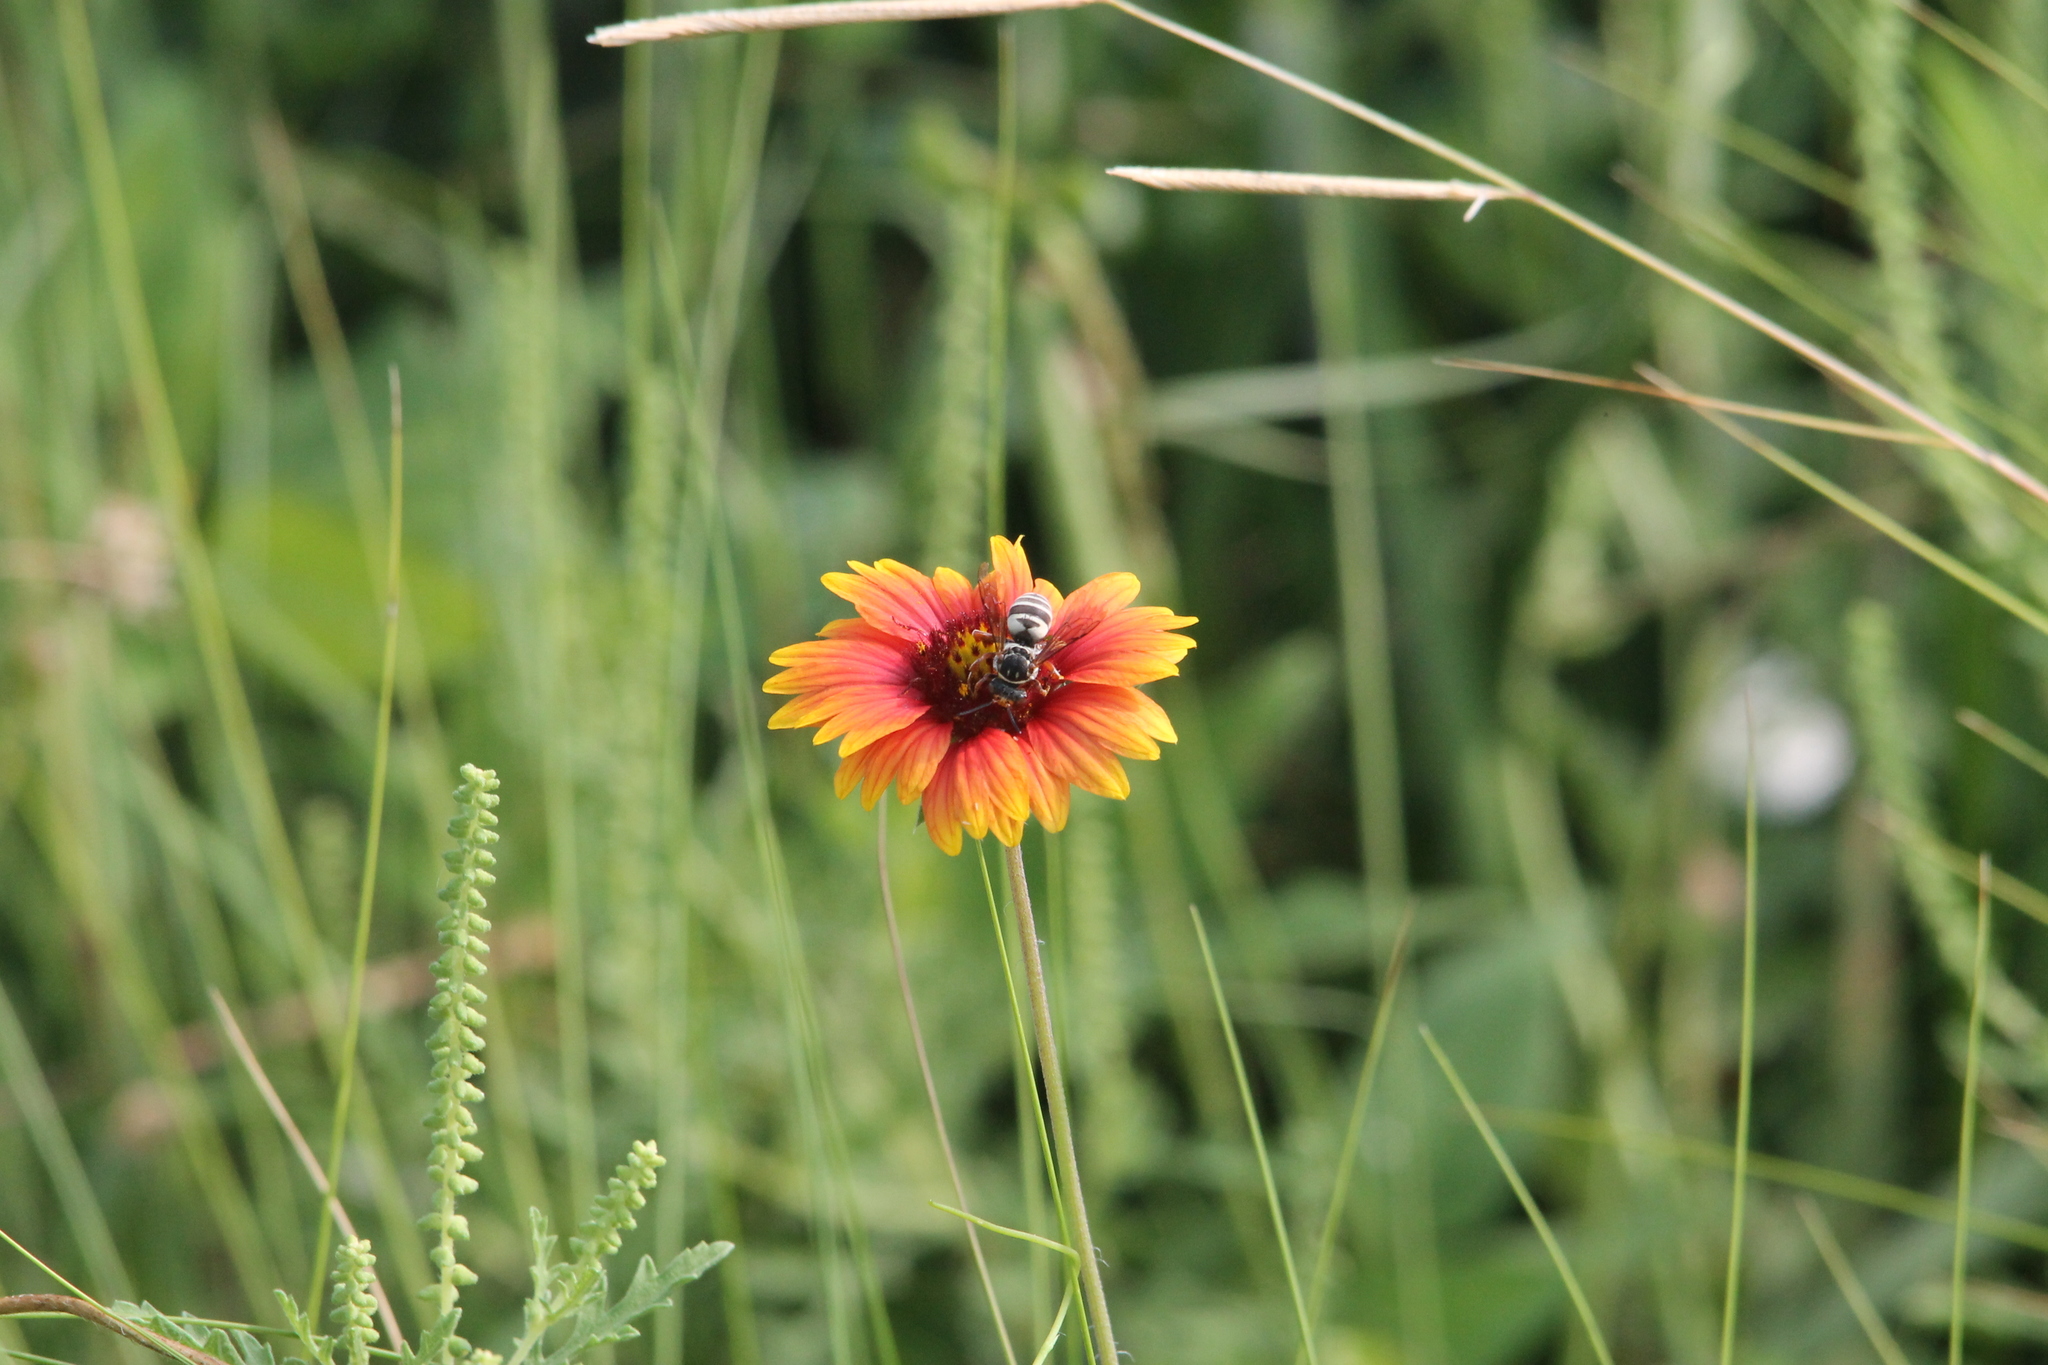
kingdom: Plantae
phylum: Tracheophyta
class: Magnoliopsida
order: Asterales
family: Asteraceae
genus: Gaillardia
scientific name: Gaillardia pulchella
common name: Firewheel
